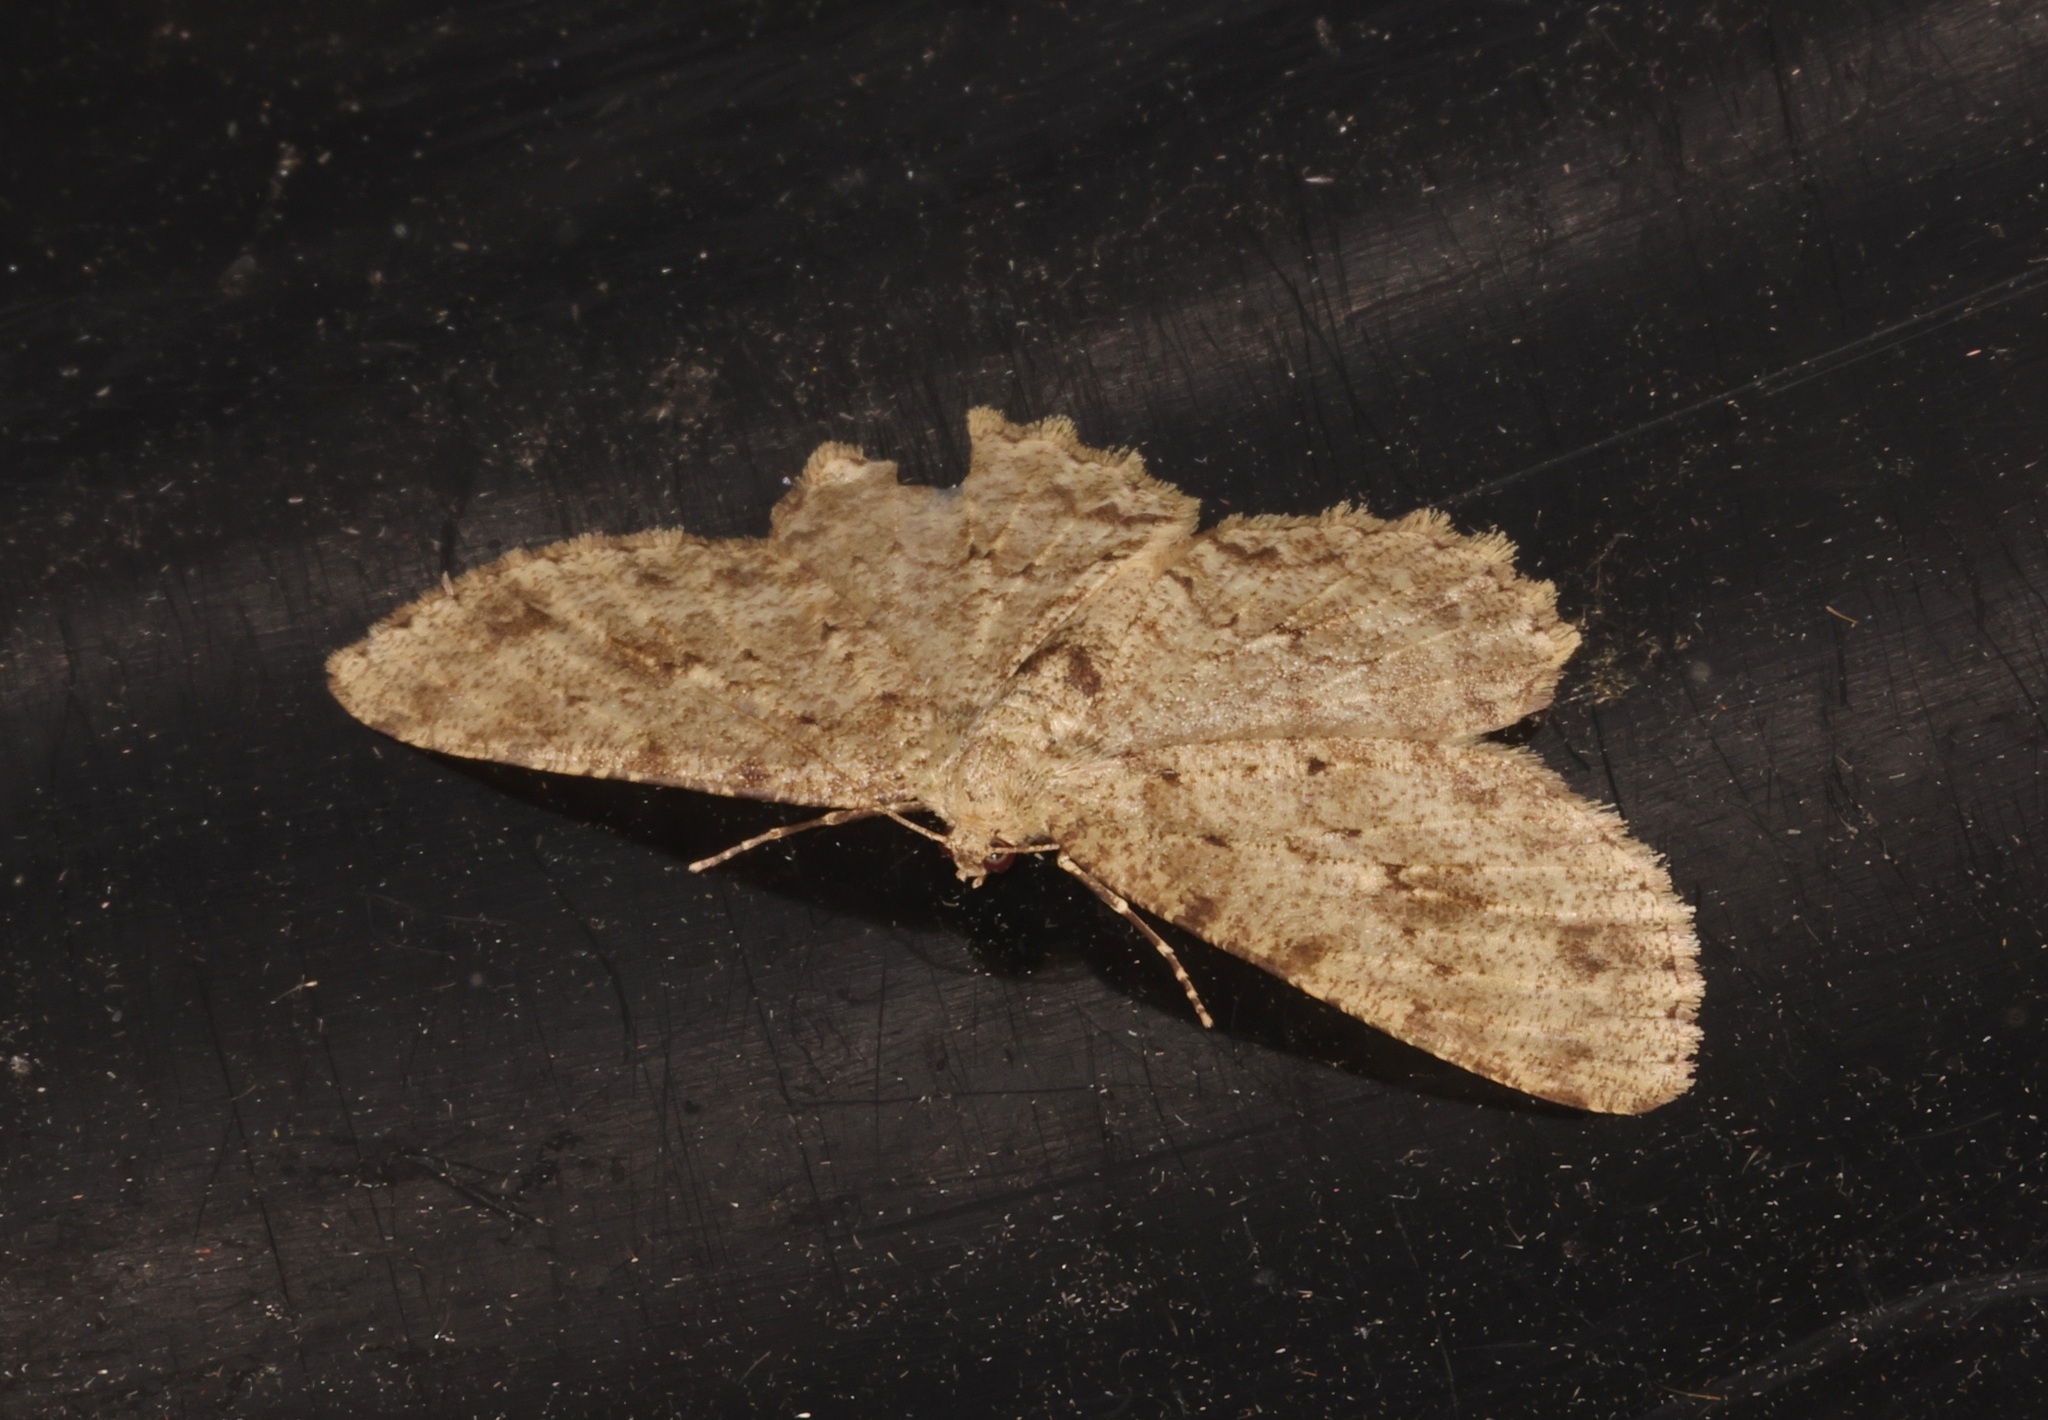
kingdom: Animalia
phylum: Arthropoda
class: Insecta
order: Lepidoptera
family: Geometridae
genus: Ectropis
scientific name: Ectropis bhurmitra
